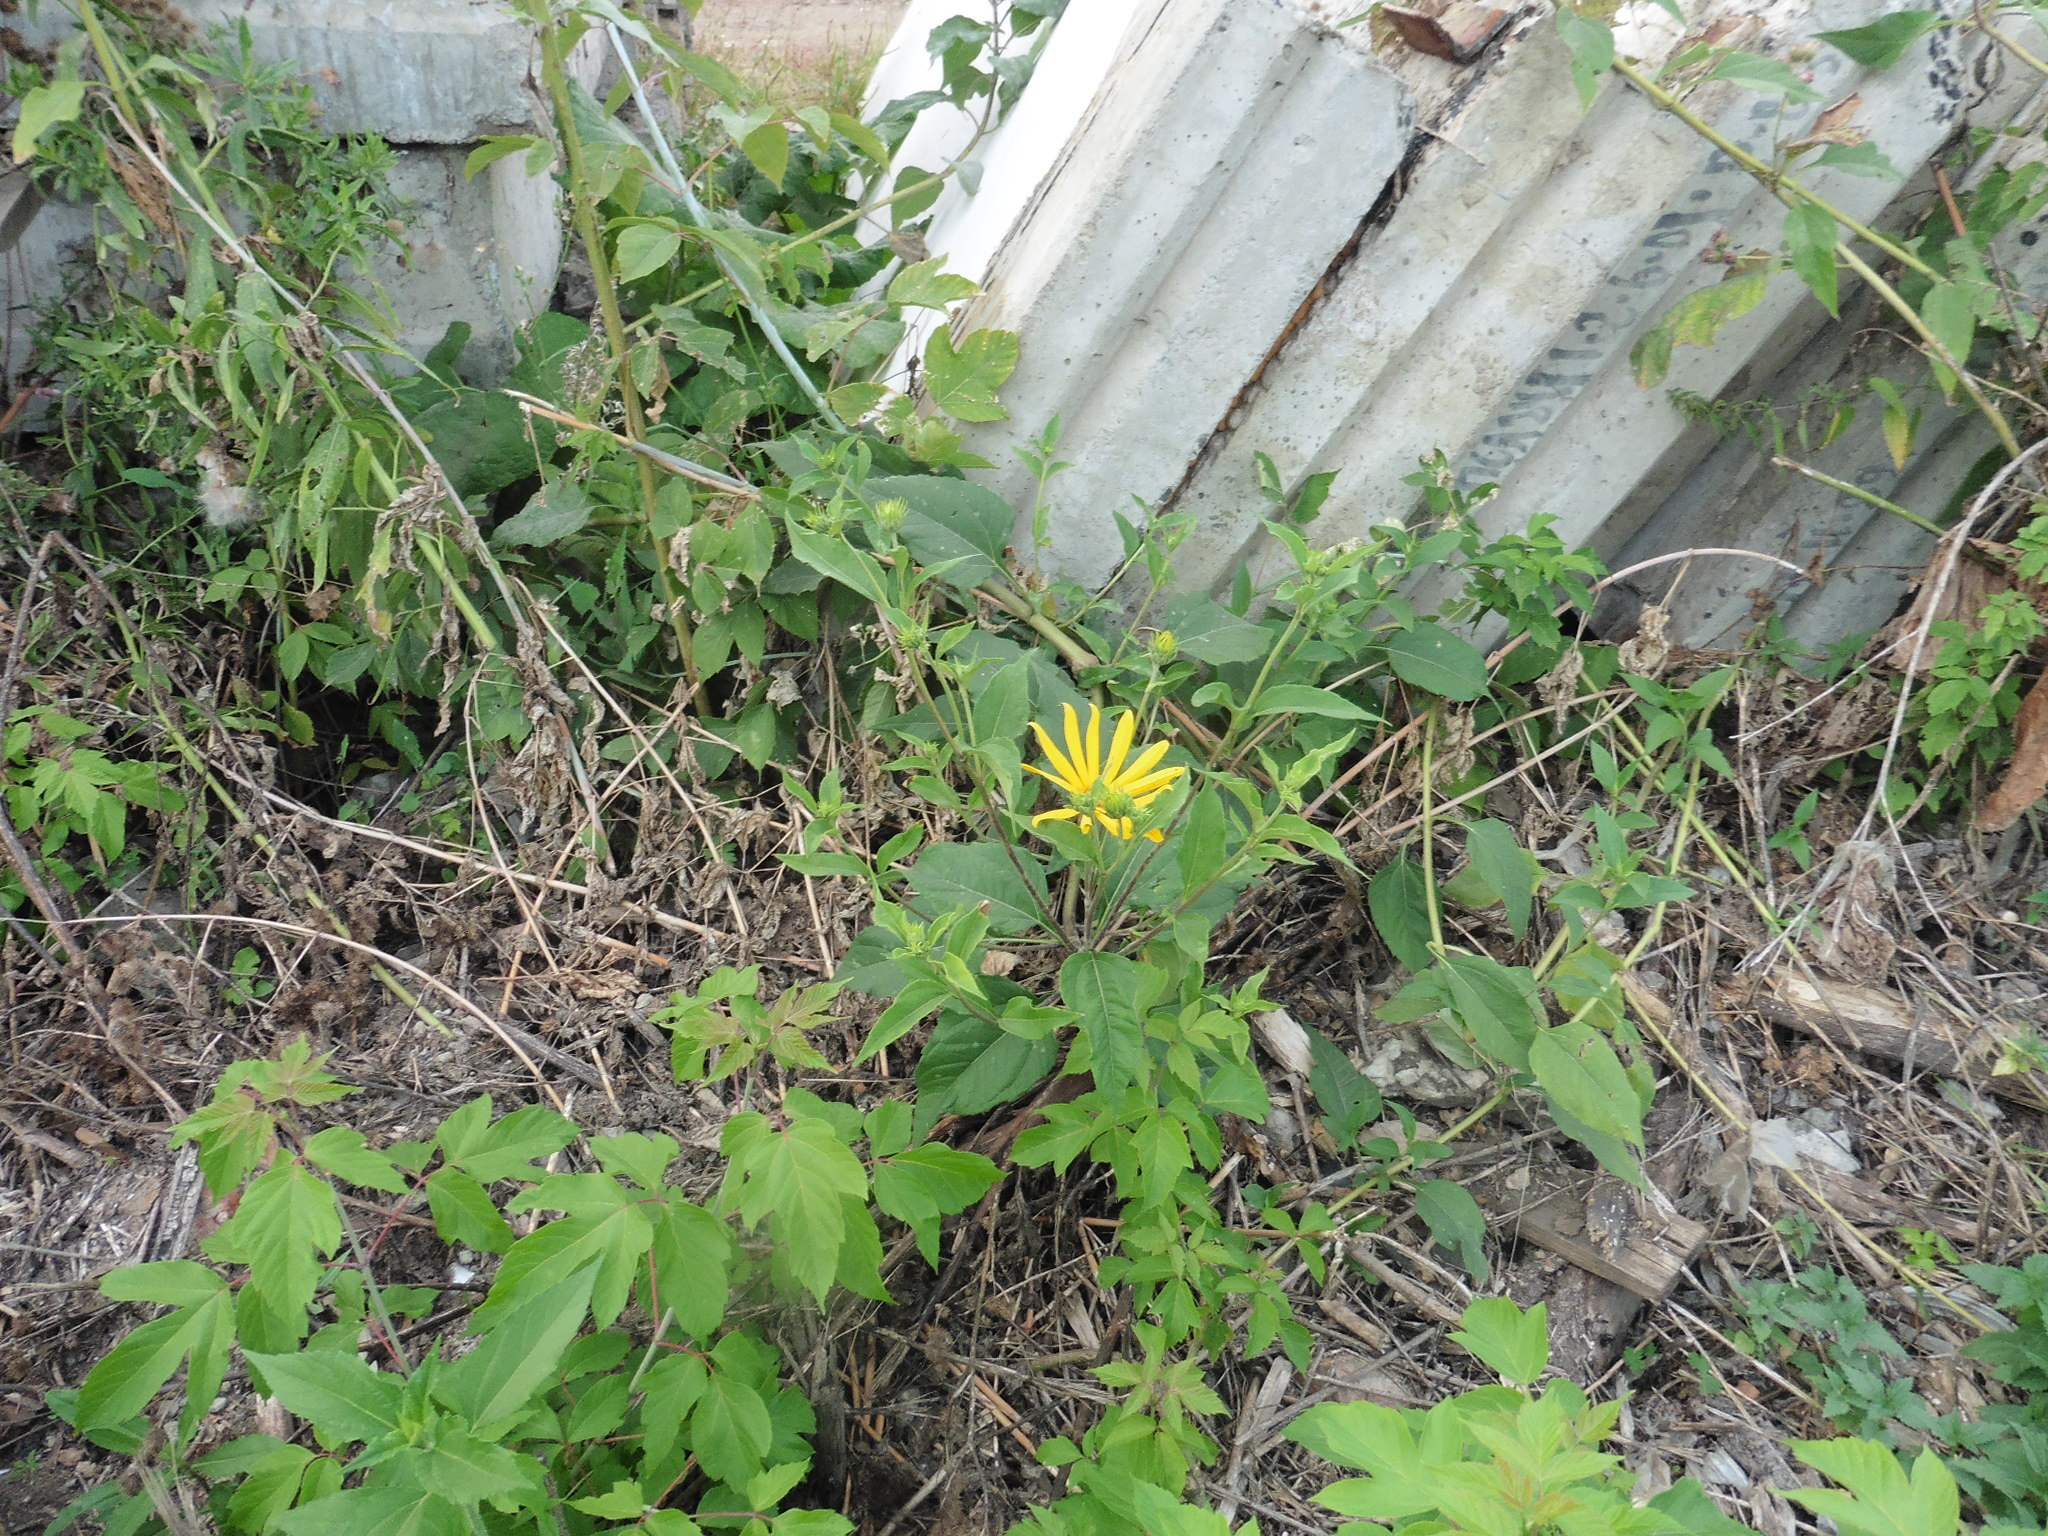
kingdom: Plantae
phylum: Tracheophyta
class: Magnoliopsida
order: Asterales
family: Asteraceae
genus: Helianthus
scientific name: Helianthus tuberosus
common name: Jerusalem artichoke
